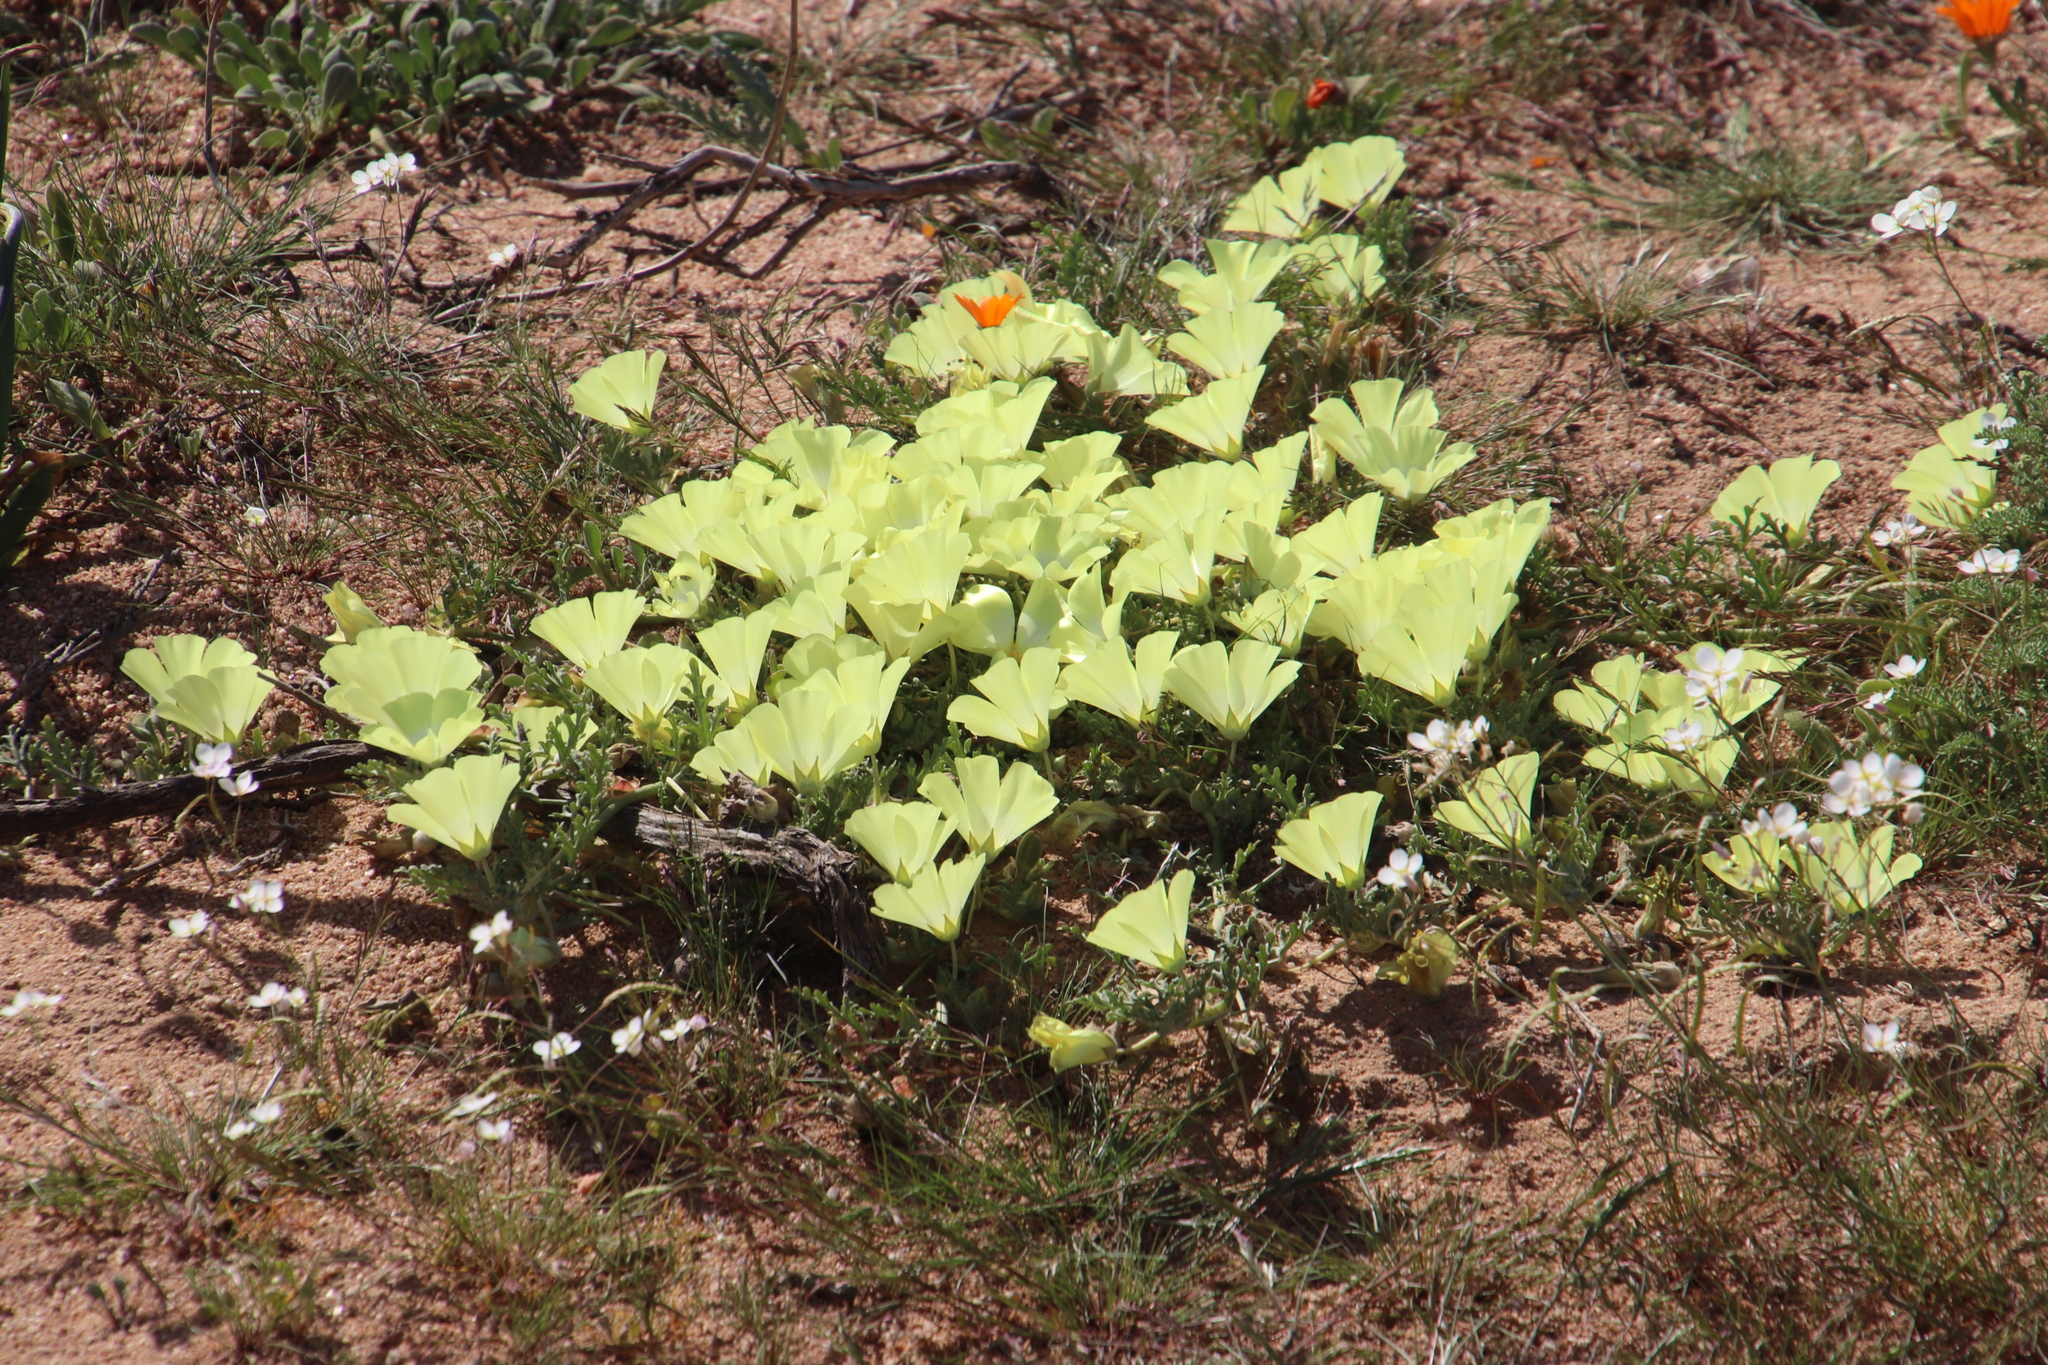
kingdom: Plantae
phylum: Tracheophyta
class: Magnoliopsida
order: Malvales
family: Neuradaceae
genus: Grielum
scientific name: Grielum humifusum
